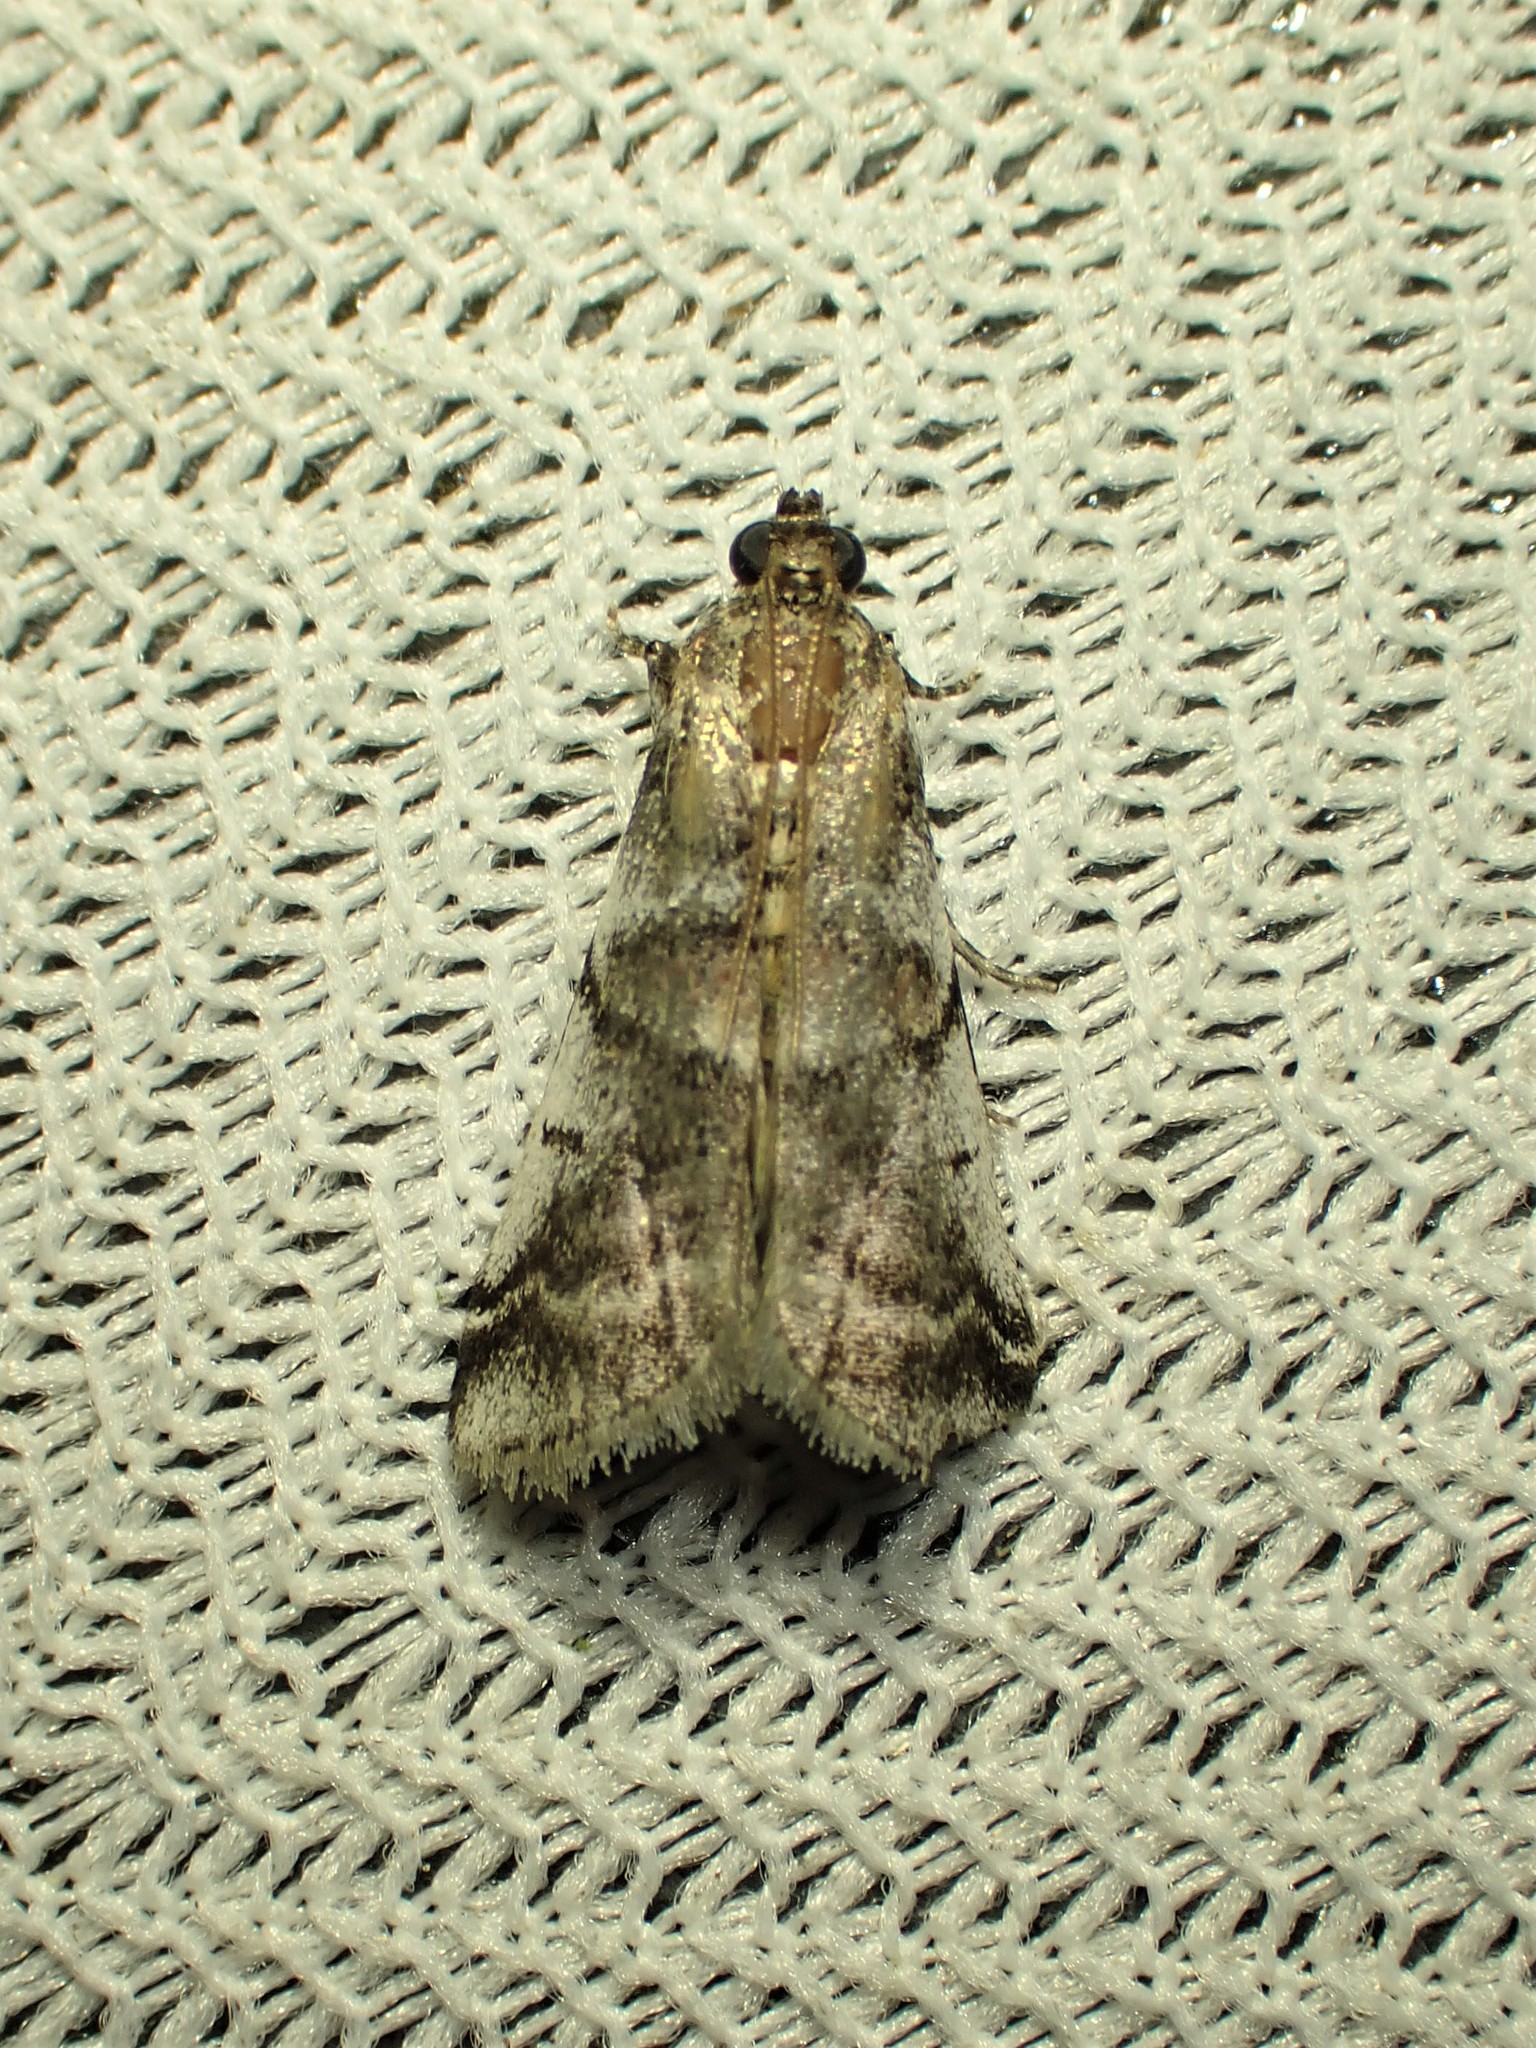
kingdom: Animalia
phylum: Arthropoda
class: Insecta
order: Lepidoptera
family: Pyralidae
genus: Acrobasis
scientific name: Acrobasis indigenella
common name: Leaf crumpler moth
